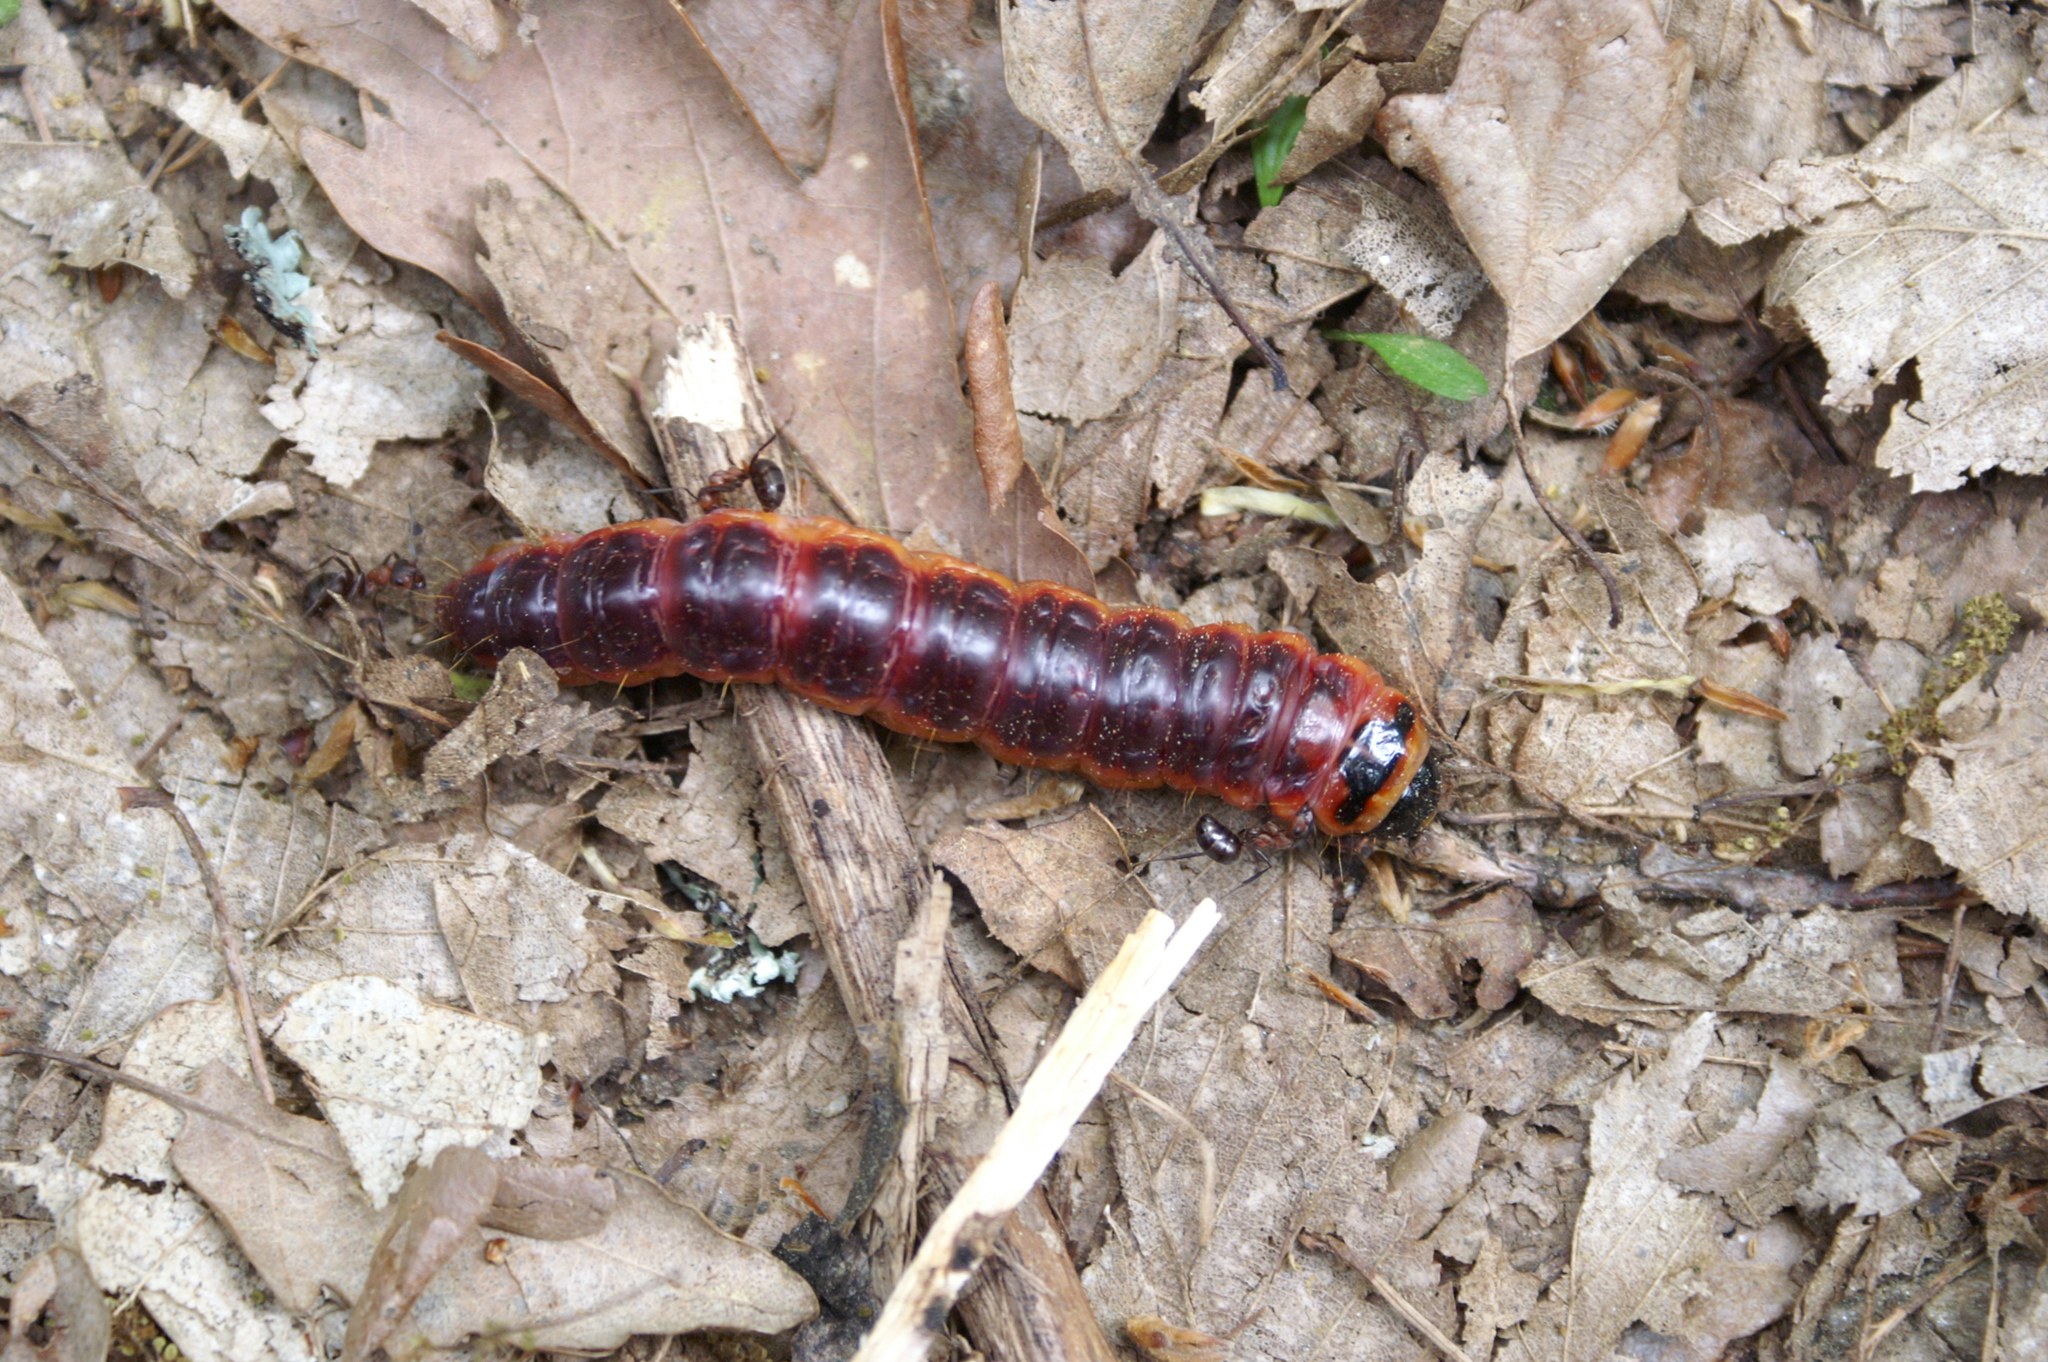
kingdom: Animalia
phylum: Arthropoda
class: Insecta
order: Lepidoptera
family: Cossidae
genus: Cossus
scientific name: Cossus cossus
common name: Goat moth
